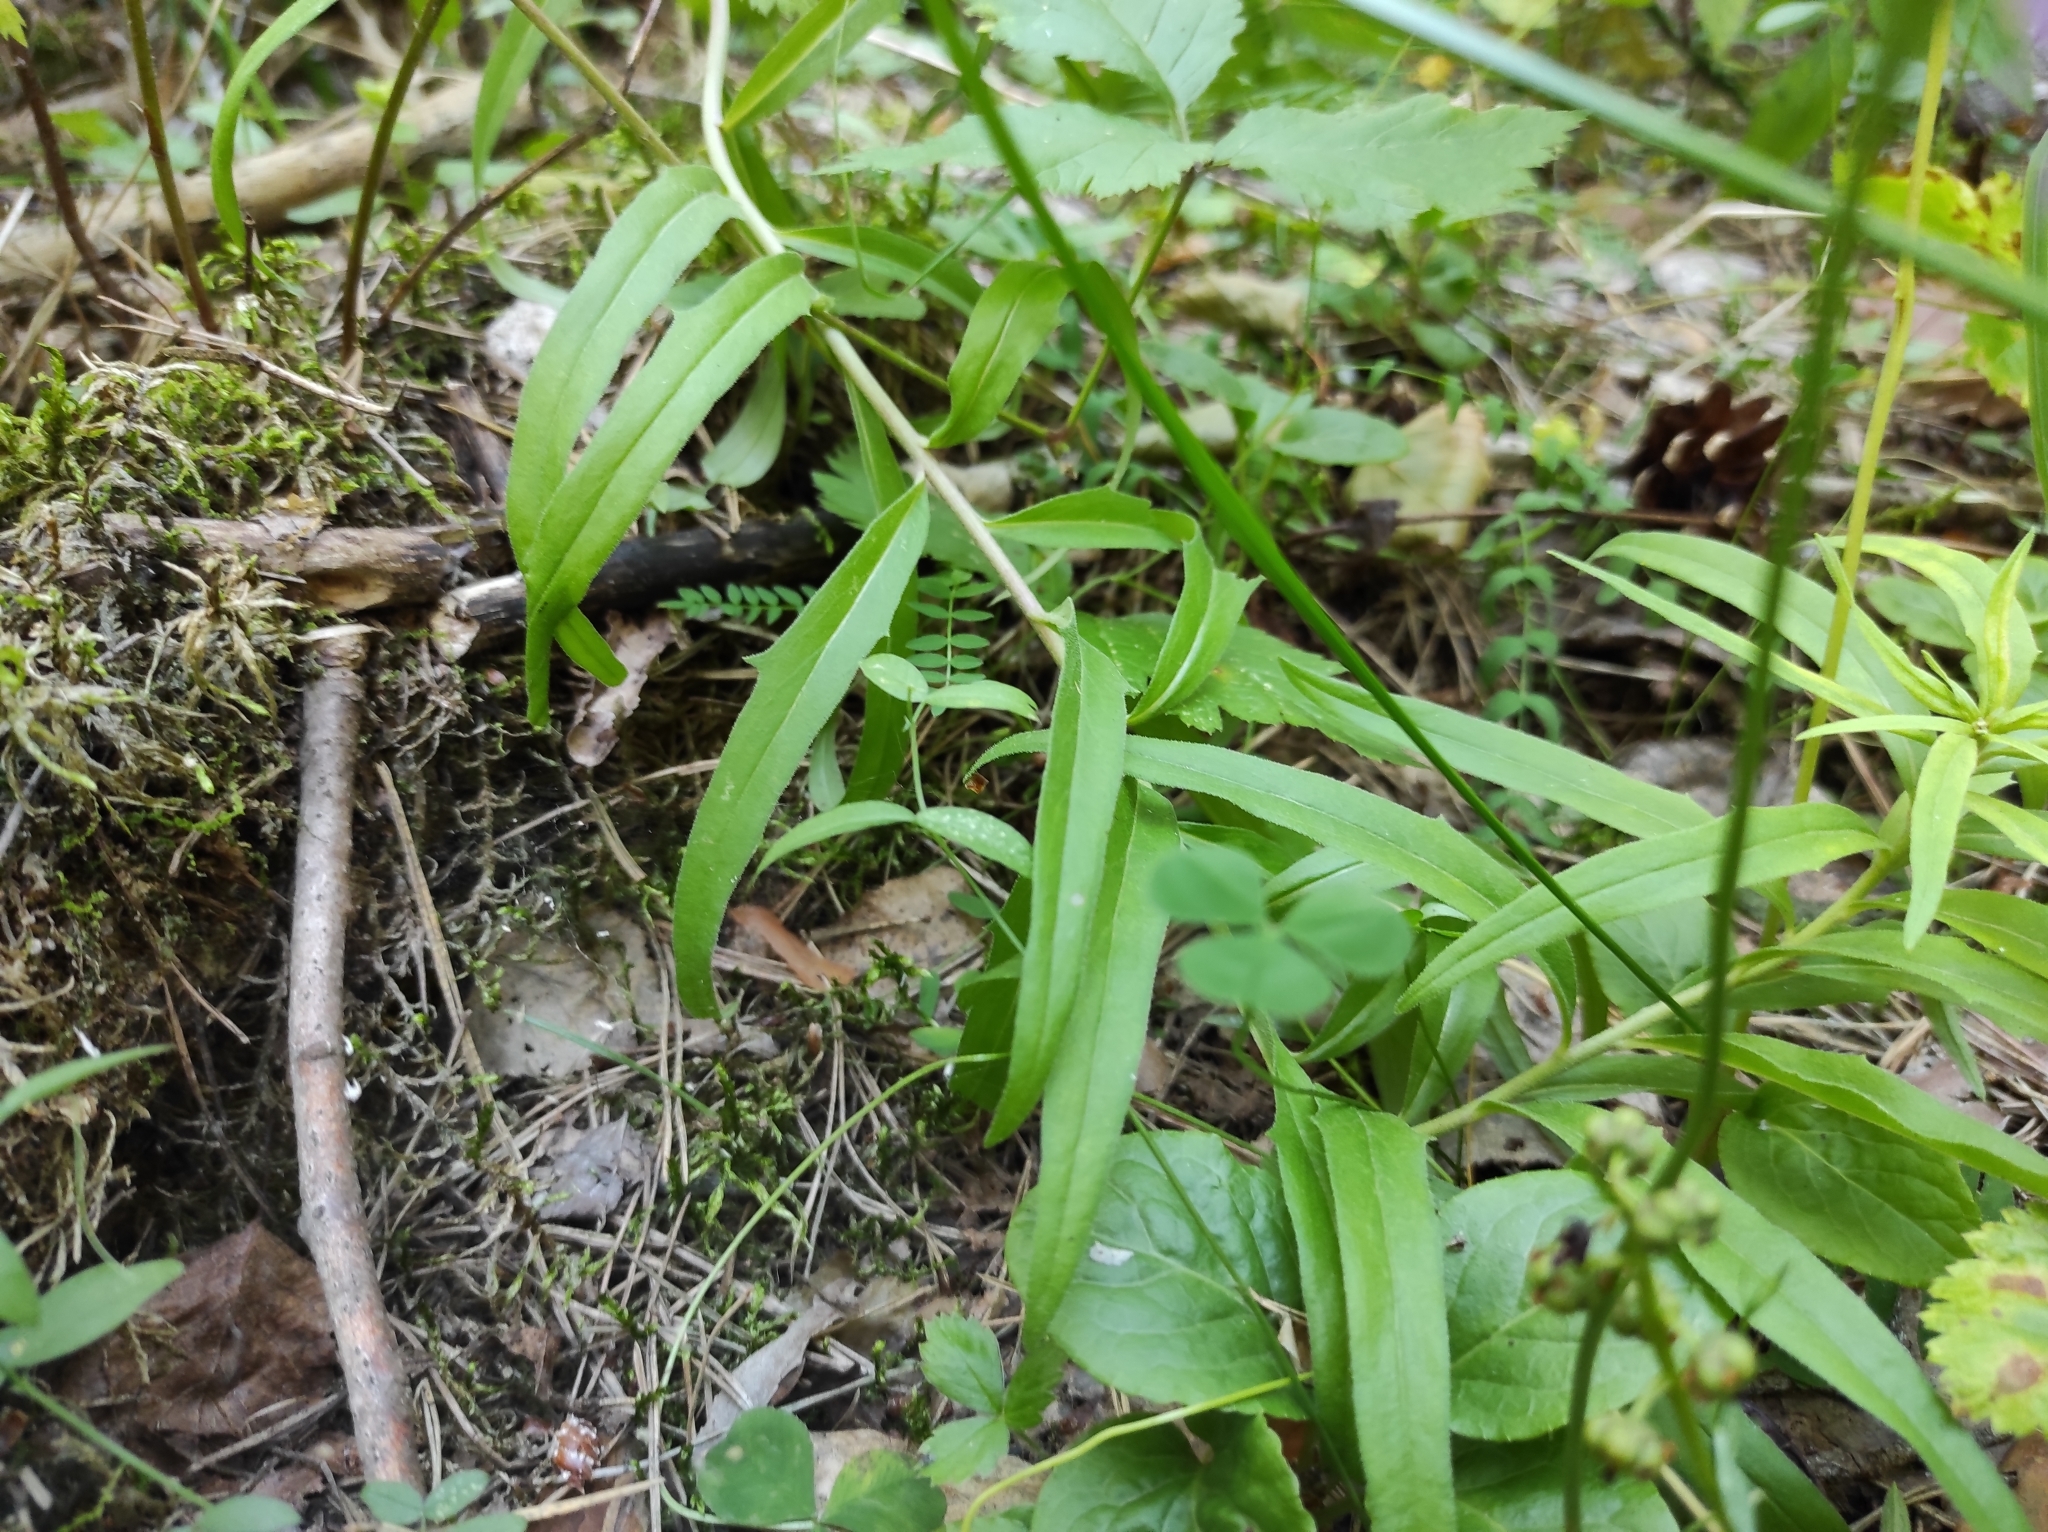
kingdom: Plantae
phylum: Tracheophyta
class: Magnoliopsida
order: Asterales
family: Asteraceae
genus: Hieracium
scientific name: Hieracium umbellatum
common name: Northern hawkweed
